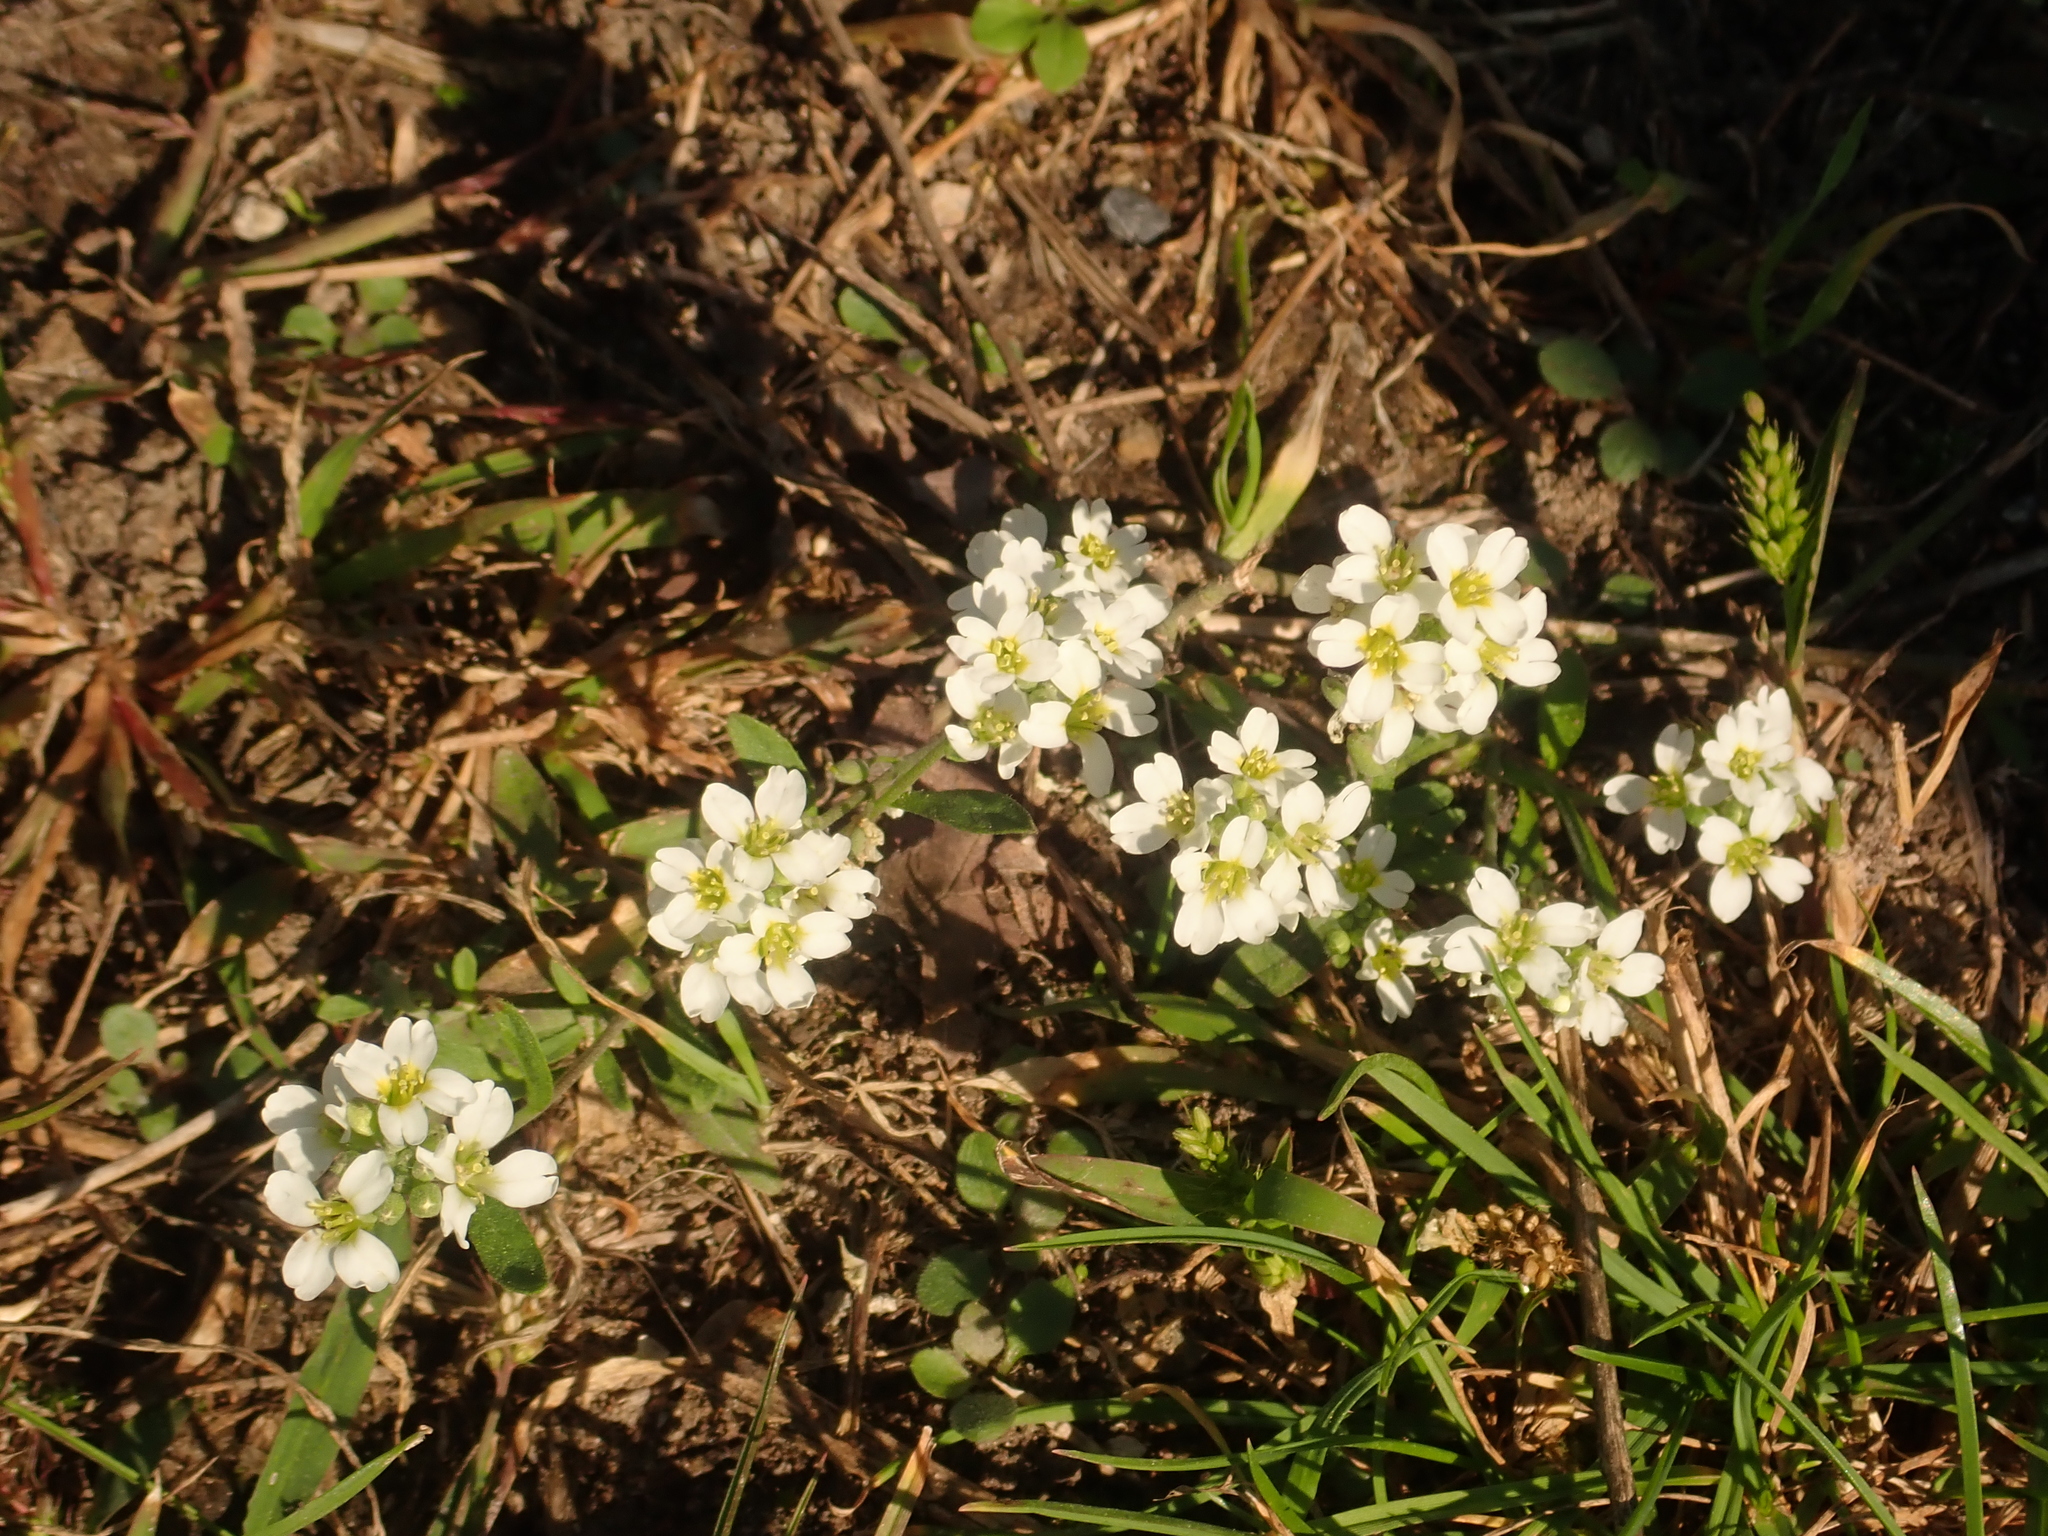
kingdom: Plantae
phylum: Tracheophyta
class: Magnoliopsida
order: Brassicales
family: Brassicaceae
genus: Berteroa
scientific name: Berteroa incana
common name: Hoary alison
